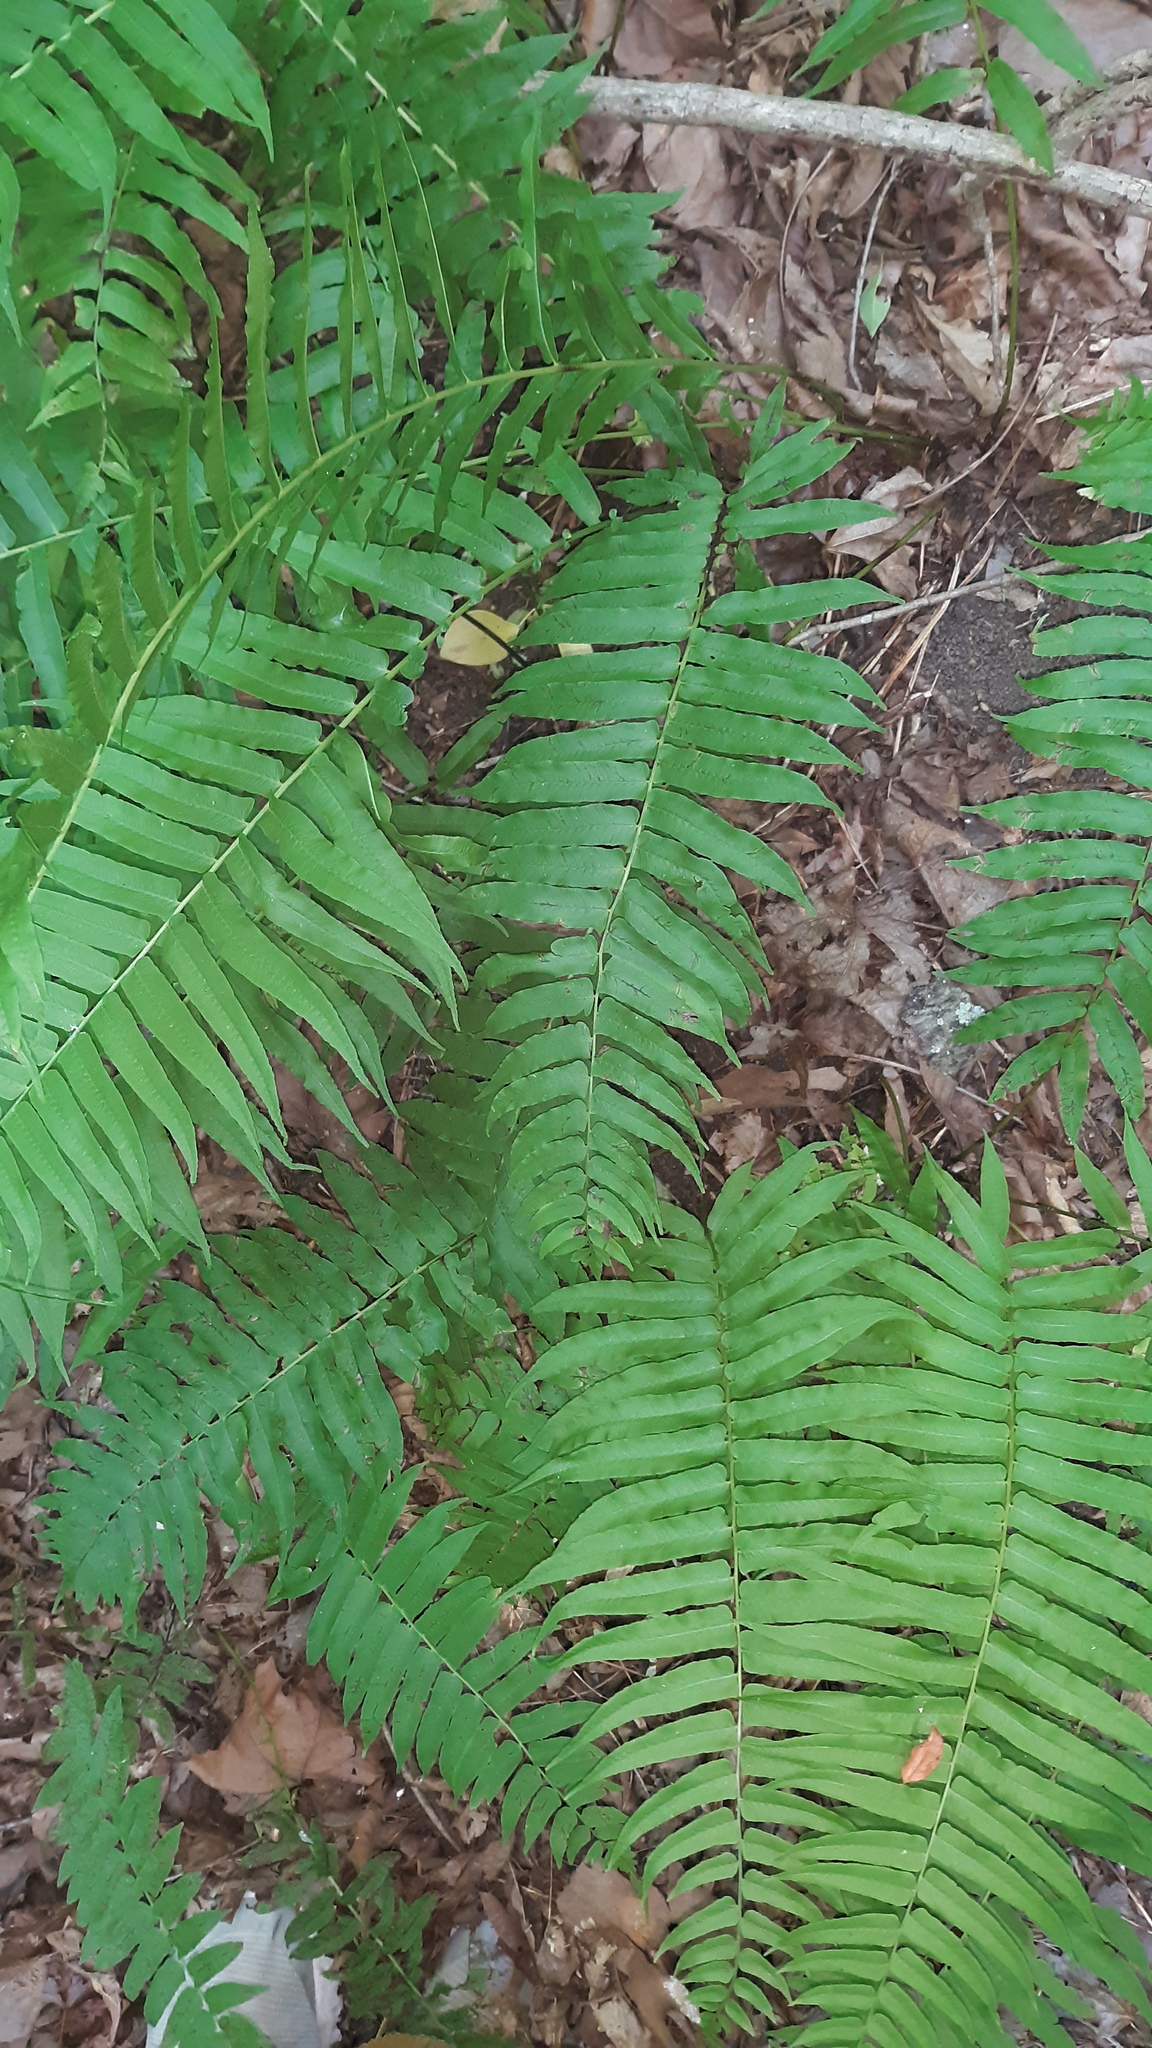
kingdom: Plantae
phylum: Tracheophyta
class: Polypodiopsida
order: Polypodiales
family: Diplaziopsidaceae
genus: Homalosorus
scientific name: Homalosorus pycnocarpos
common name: Glade fern
